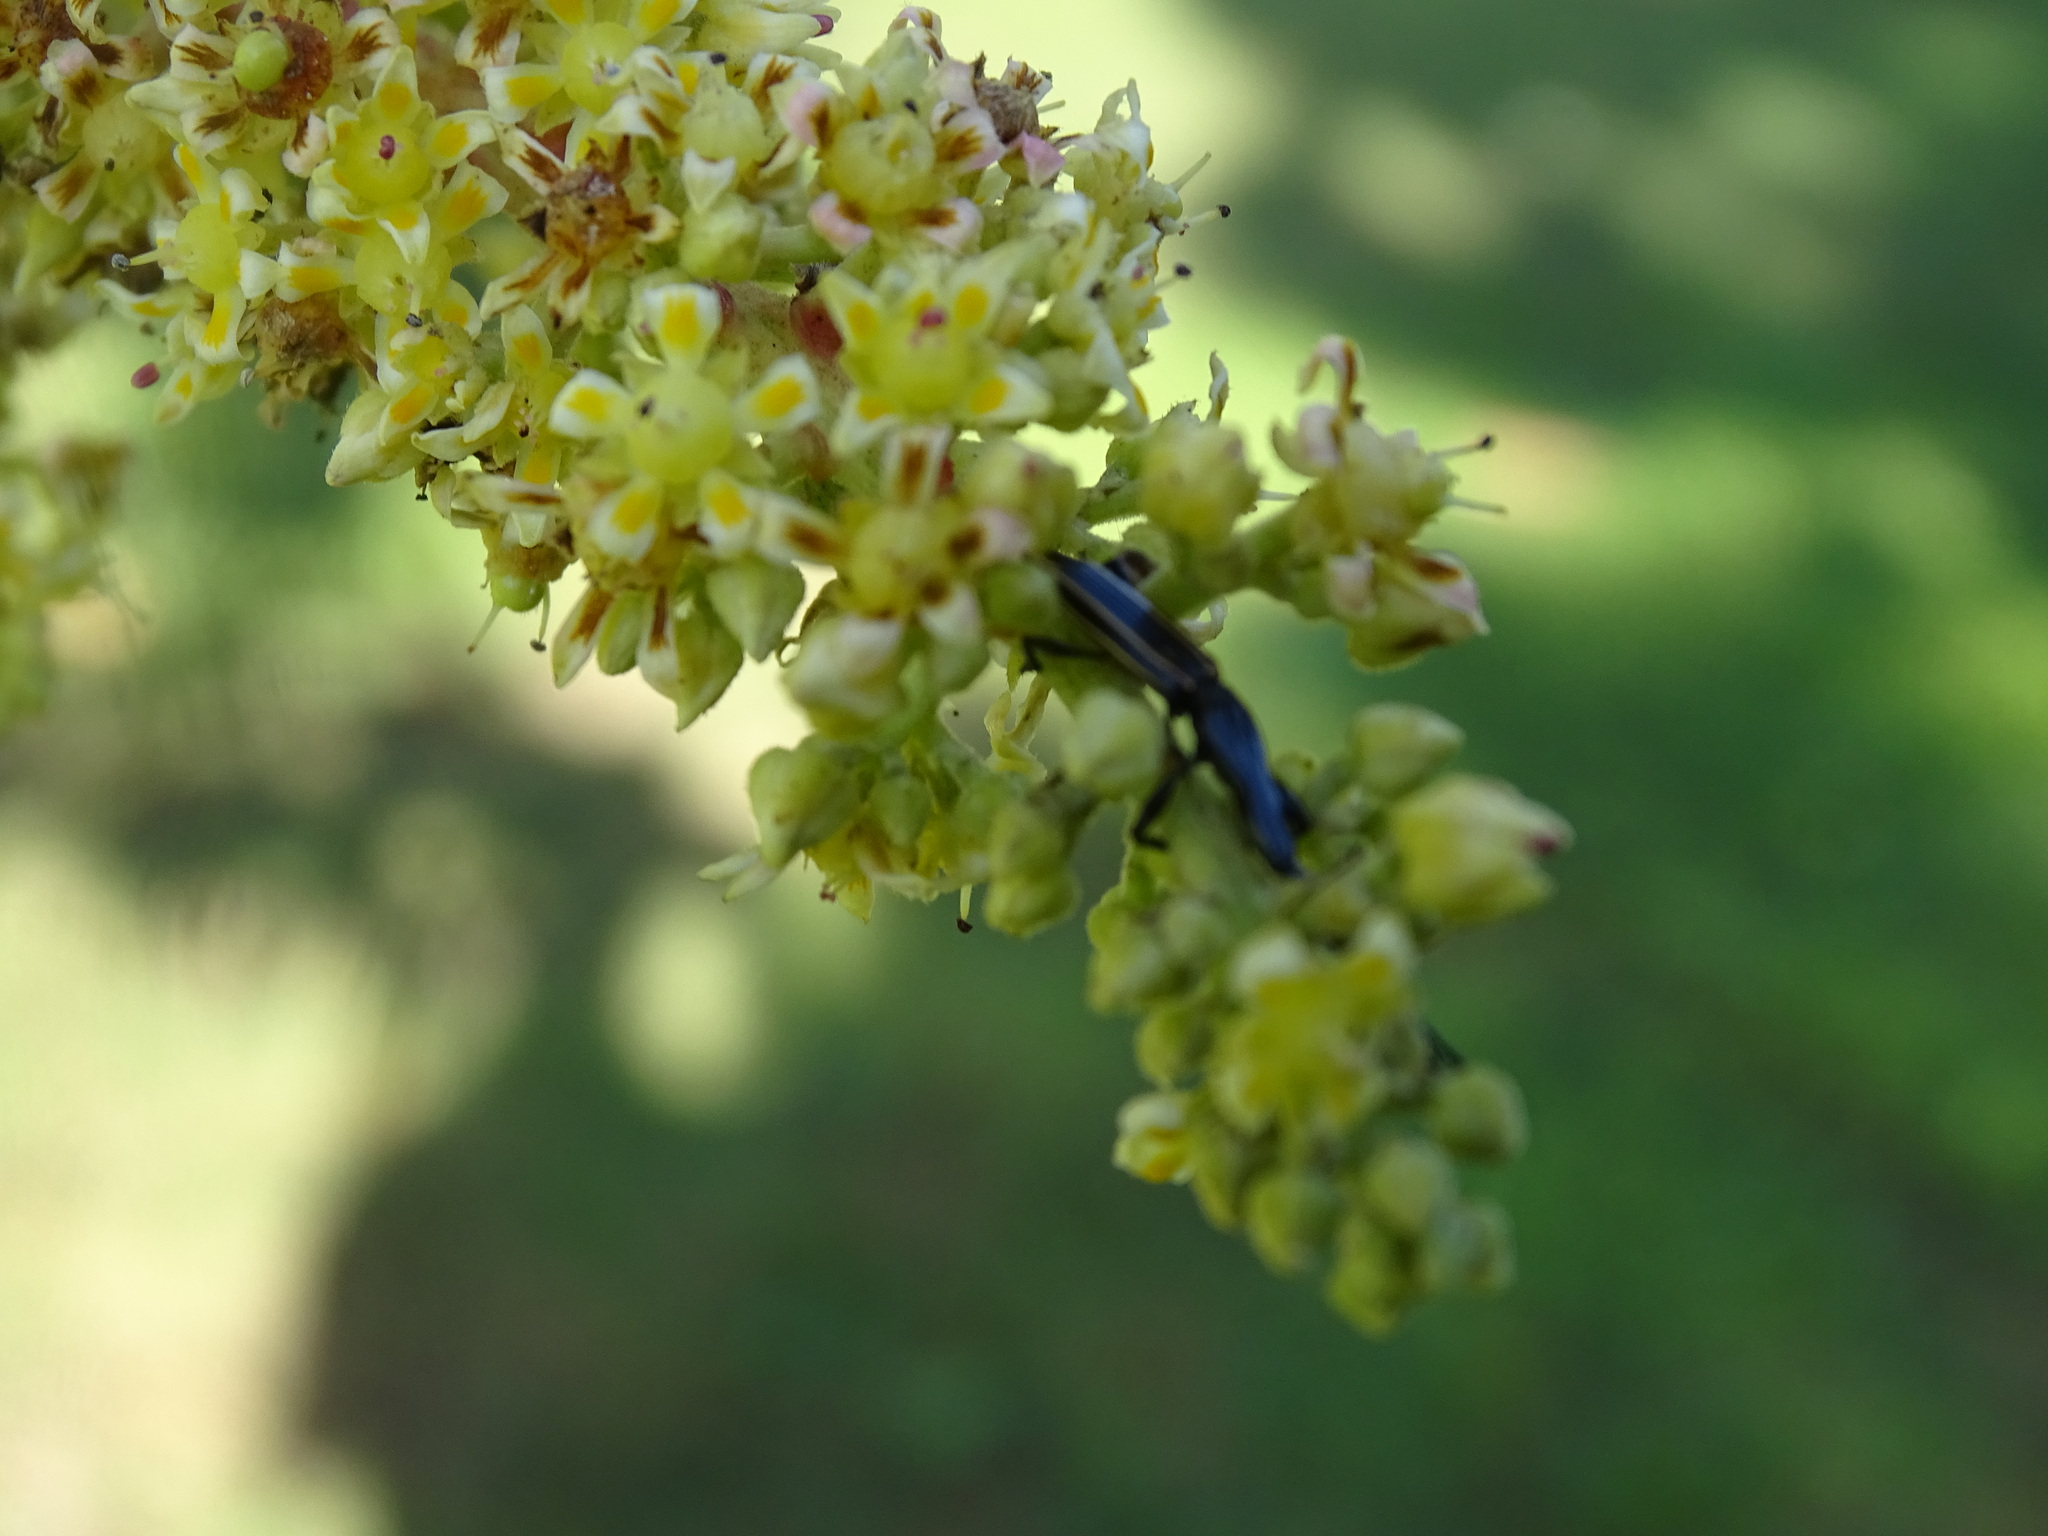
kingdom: Animalia
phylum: Arthropoda
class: Insecta
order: Coleoptera
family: Brentidae
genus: Brentus
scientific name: Brentus anchorago
